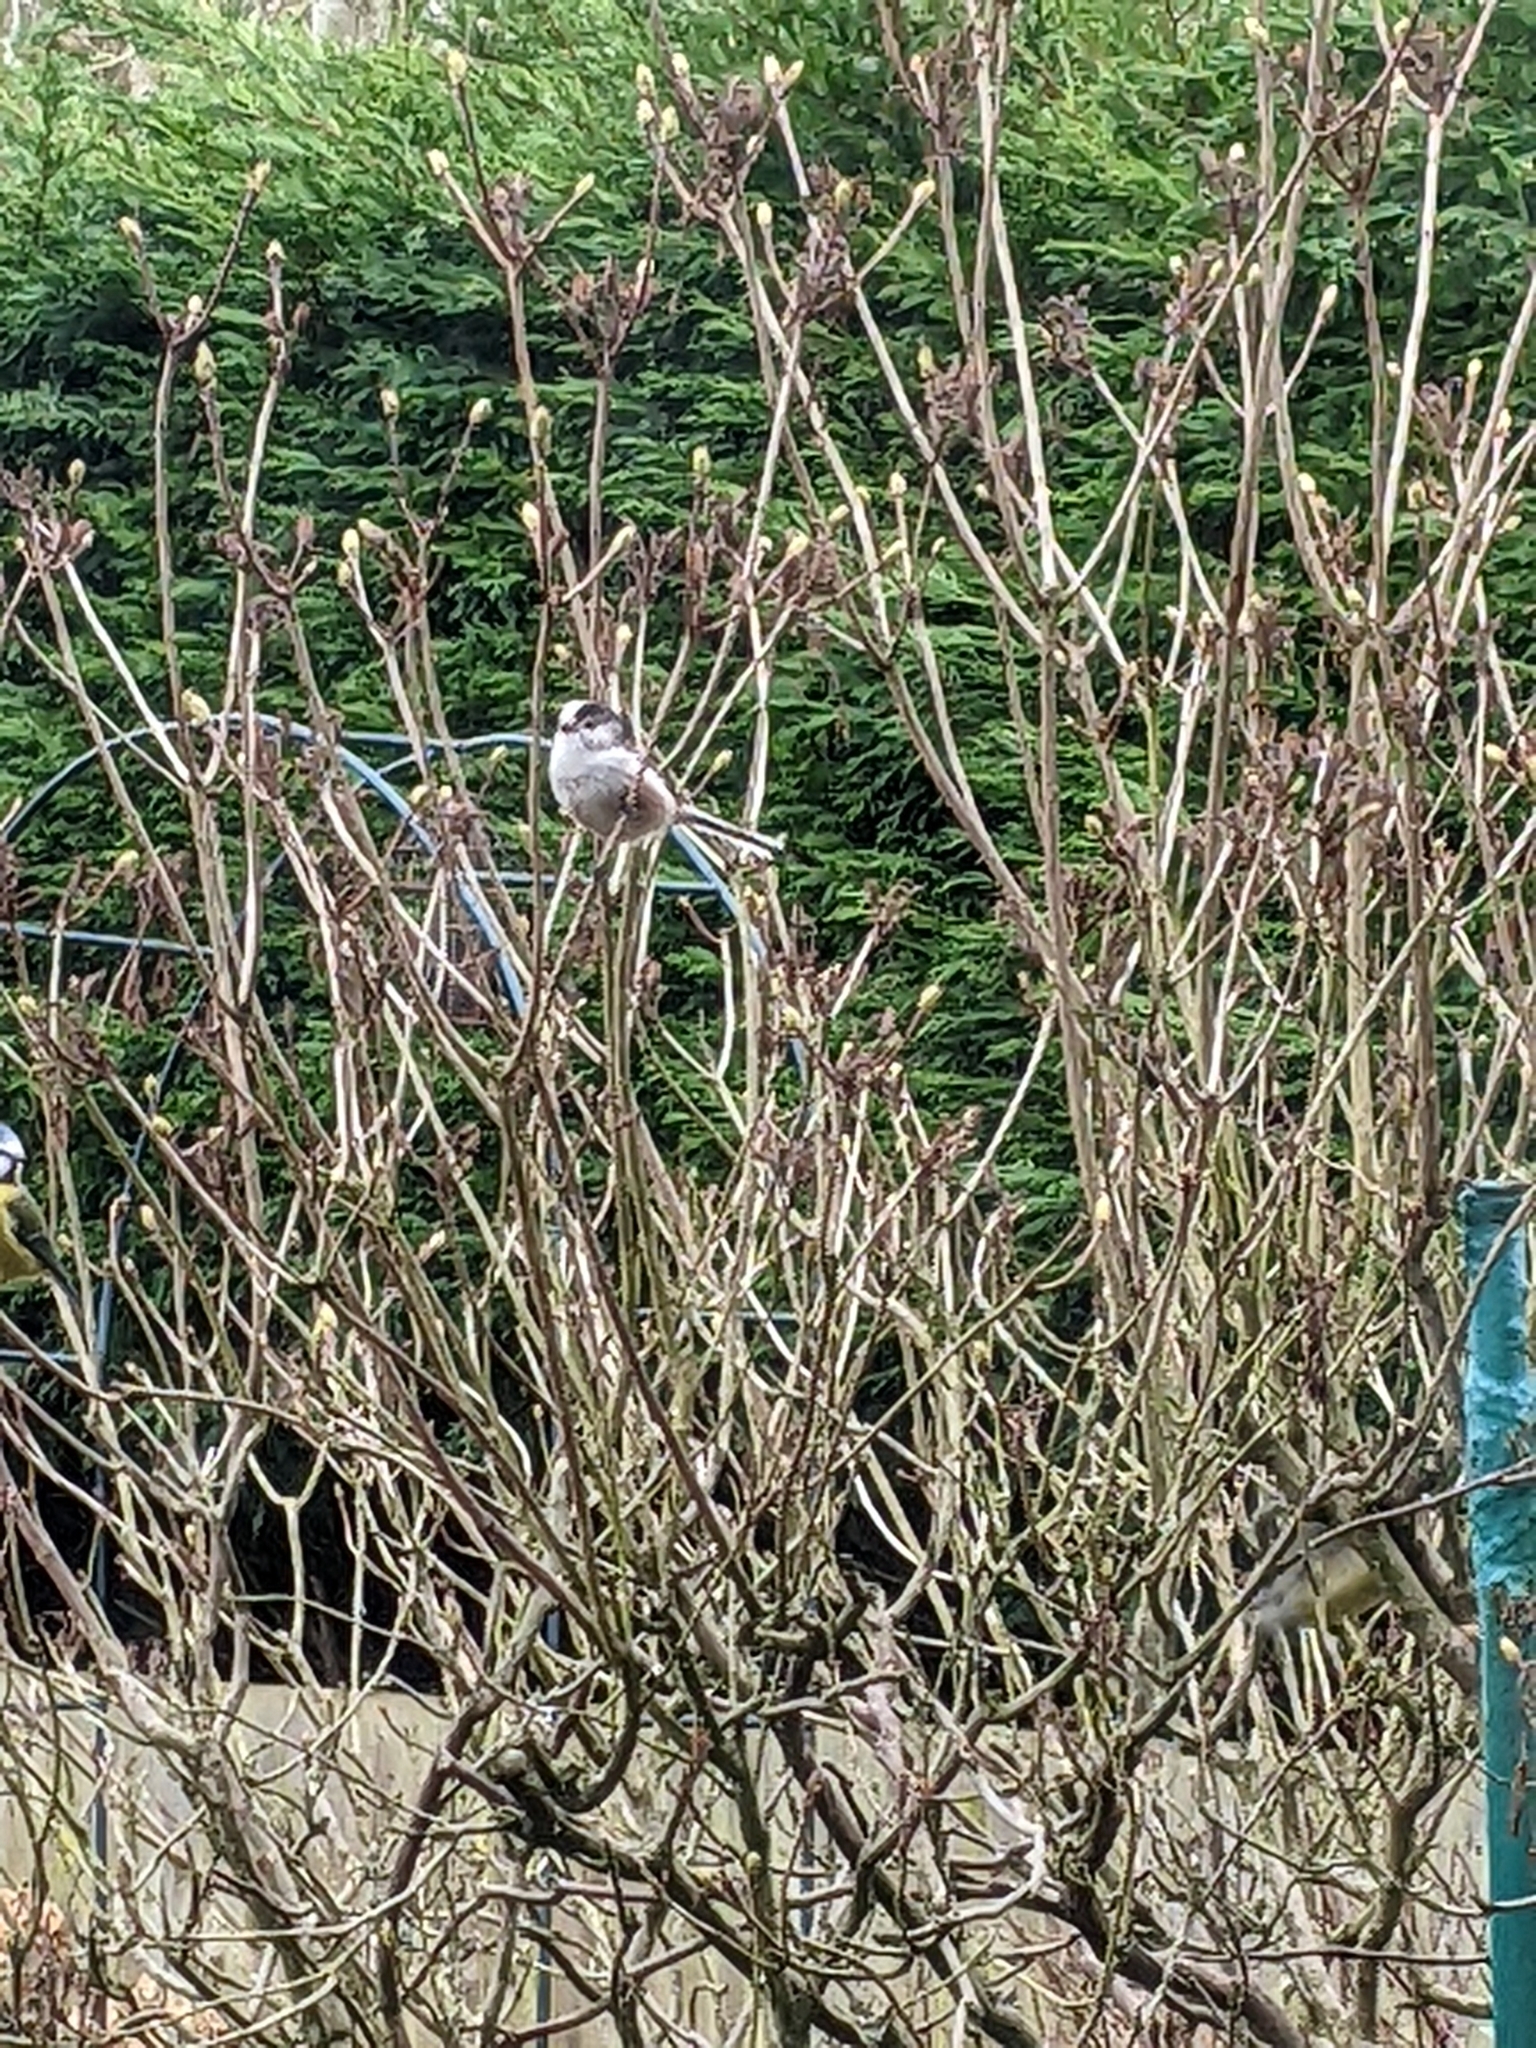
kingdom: Animalia
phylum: Chordata
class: Aves
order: Passeriformes
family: Aegithalidae
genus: Aegithalos
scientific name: Aegithalos caudatus
